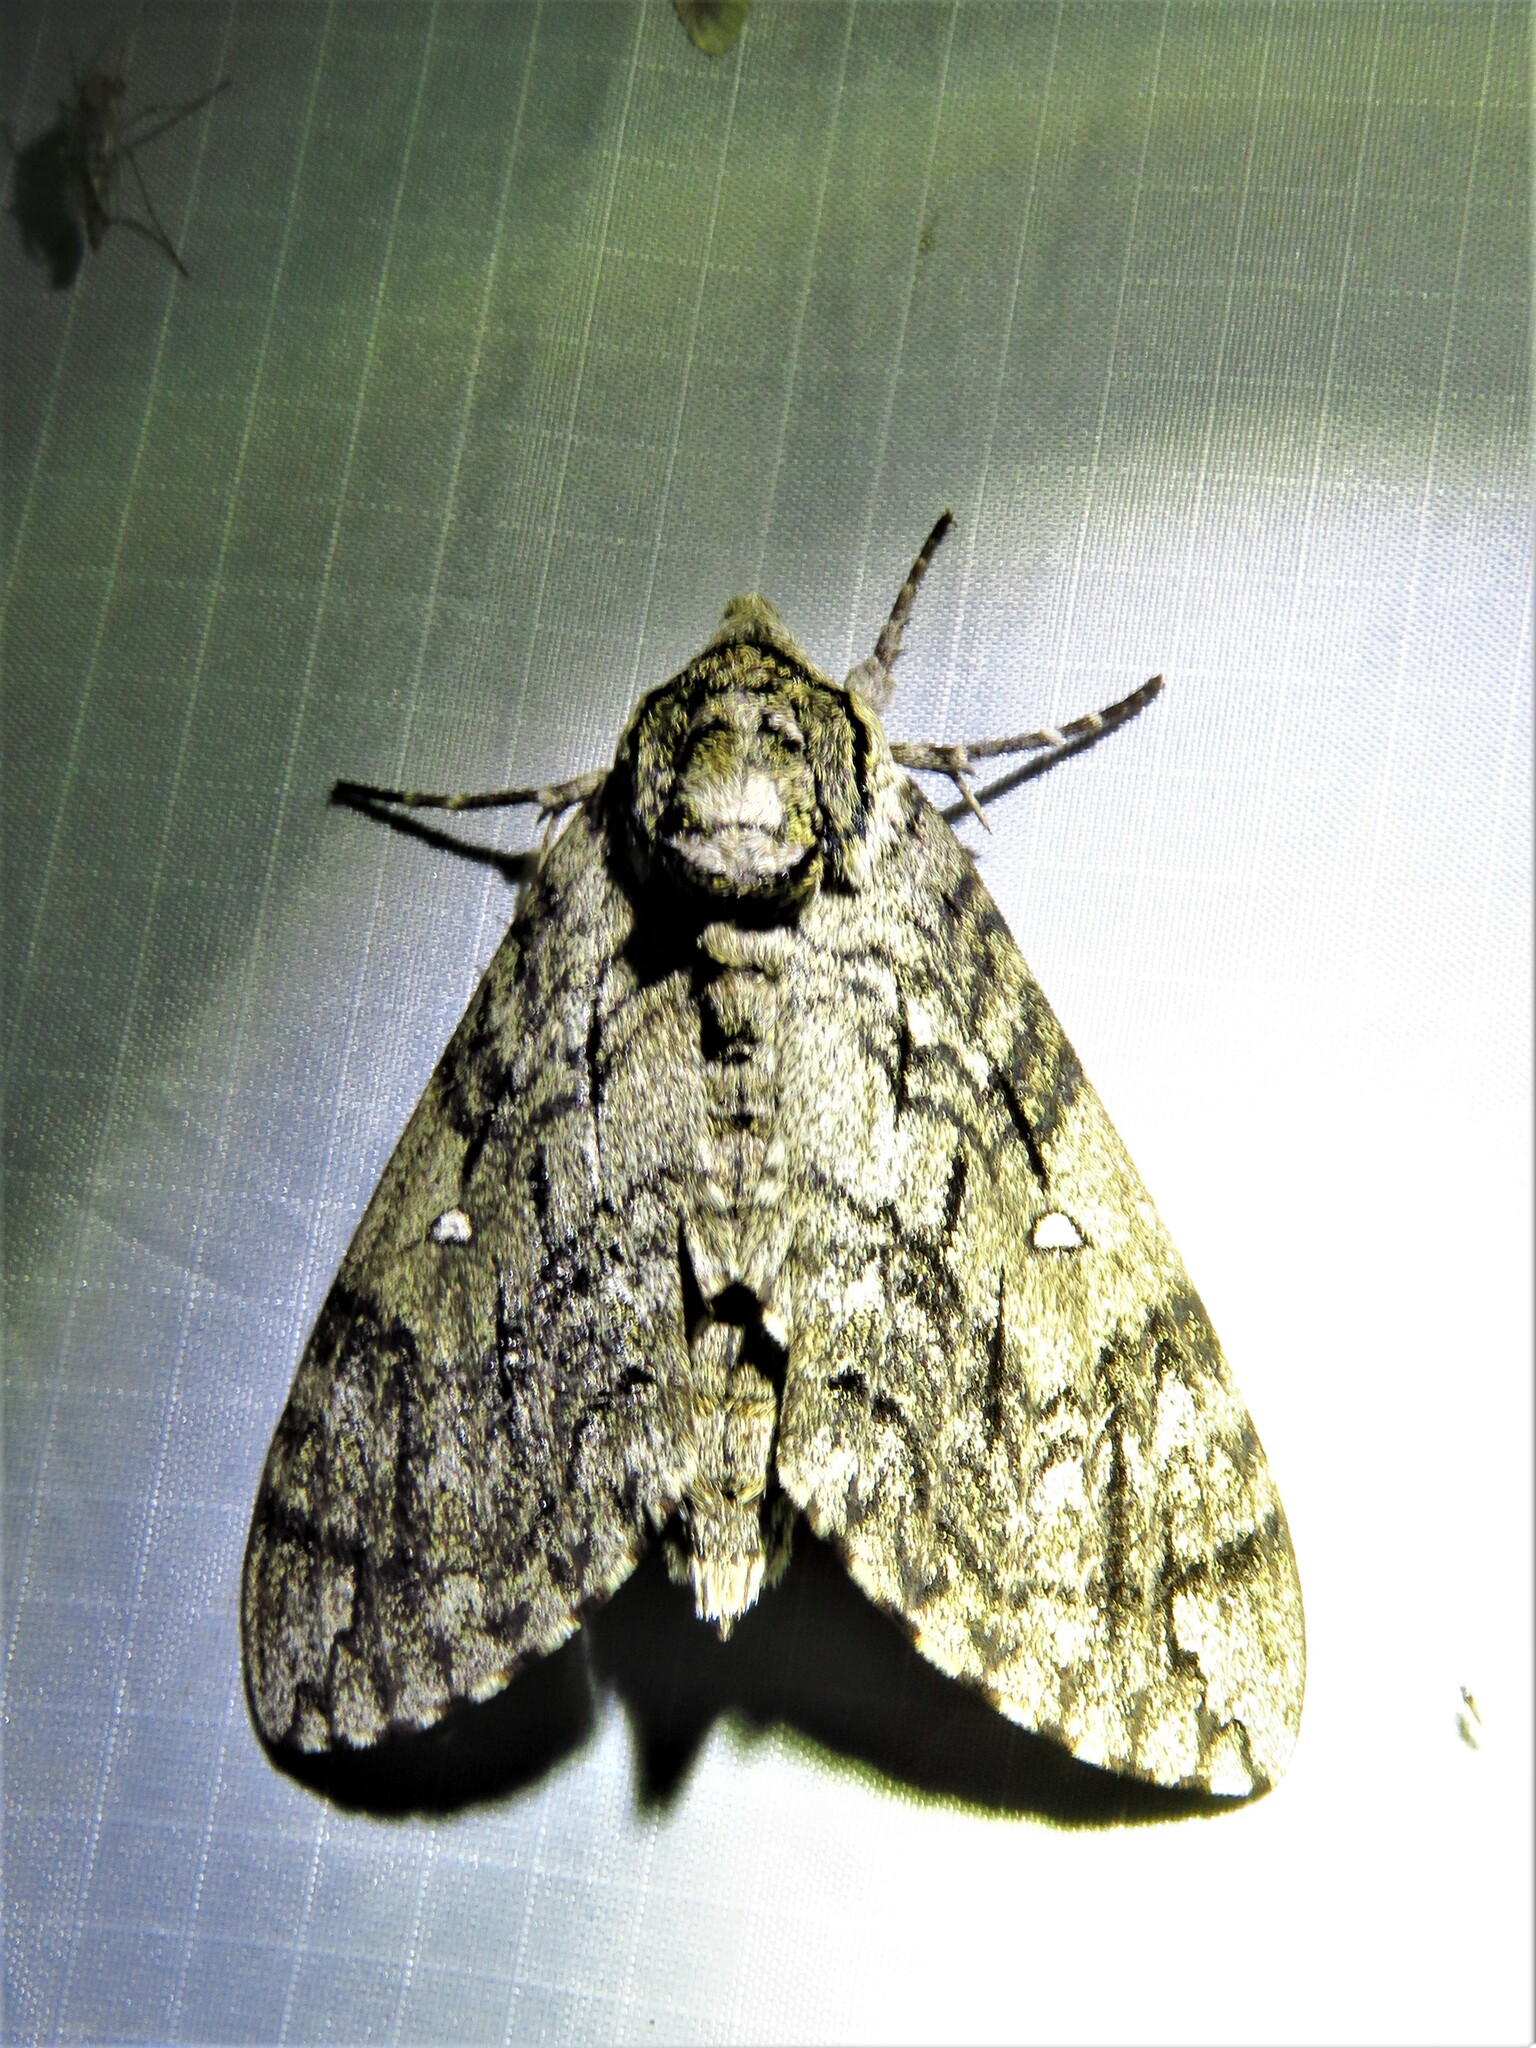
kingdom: Animalia
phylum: Arthropoda
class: Insecta
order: Lepidoptera
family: Sphingidae
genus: Ceratomia
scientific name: Ceratomia undulosa
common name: Waved sphinx
